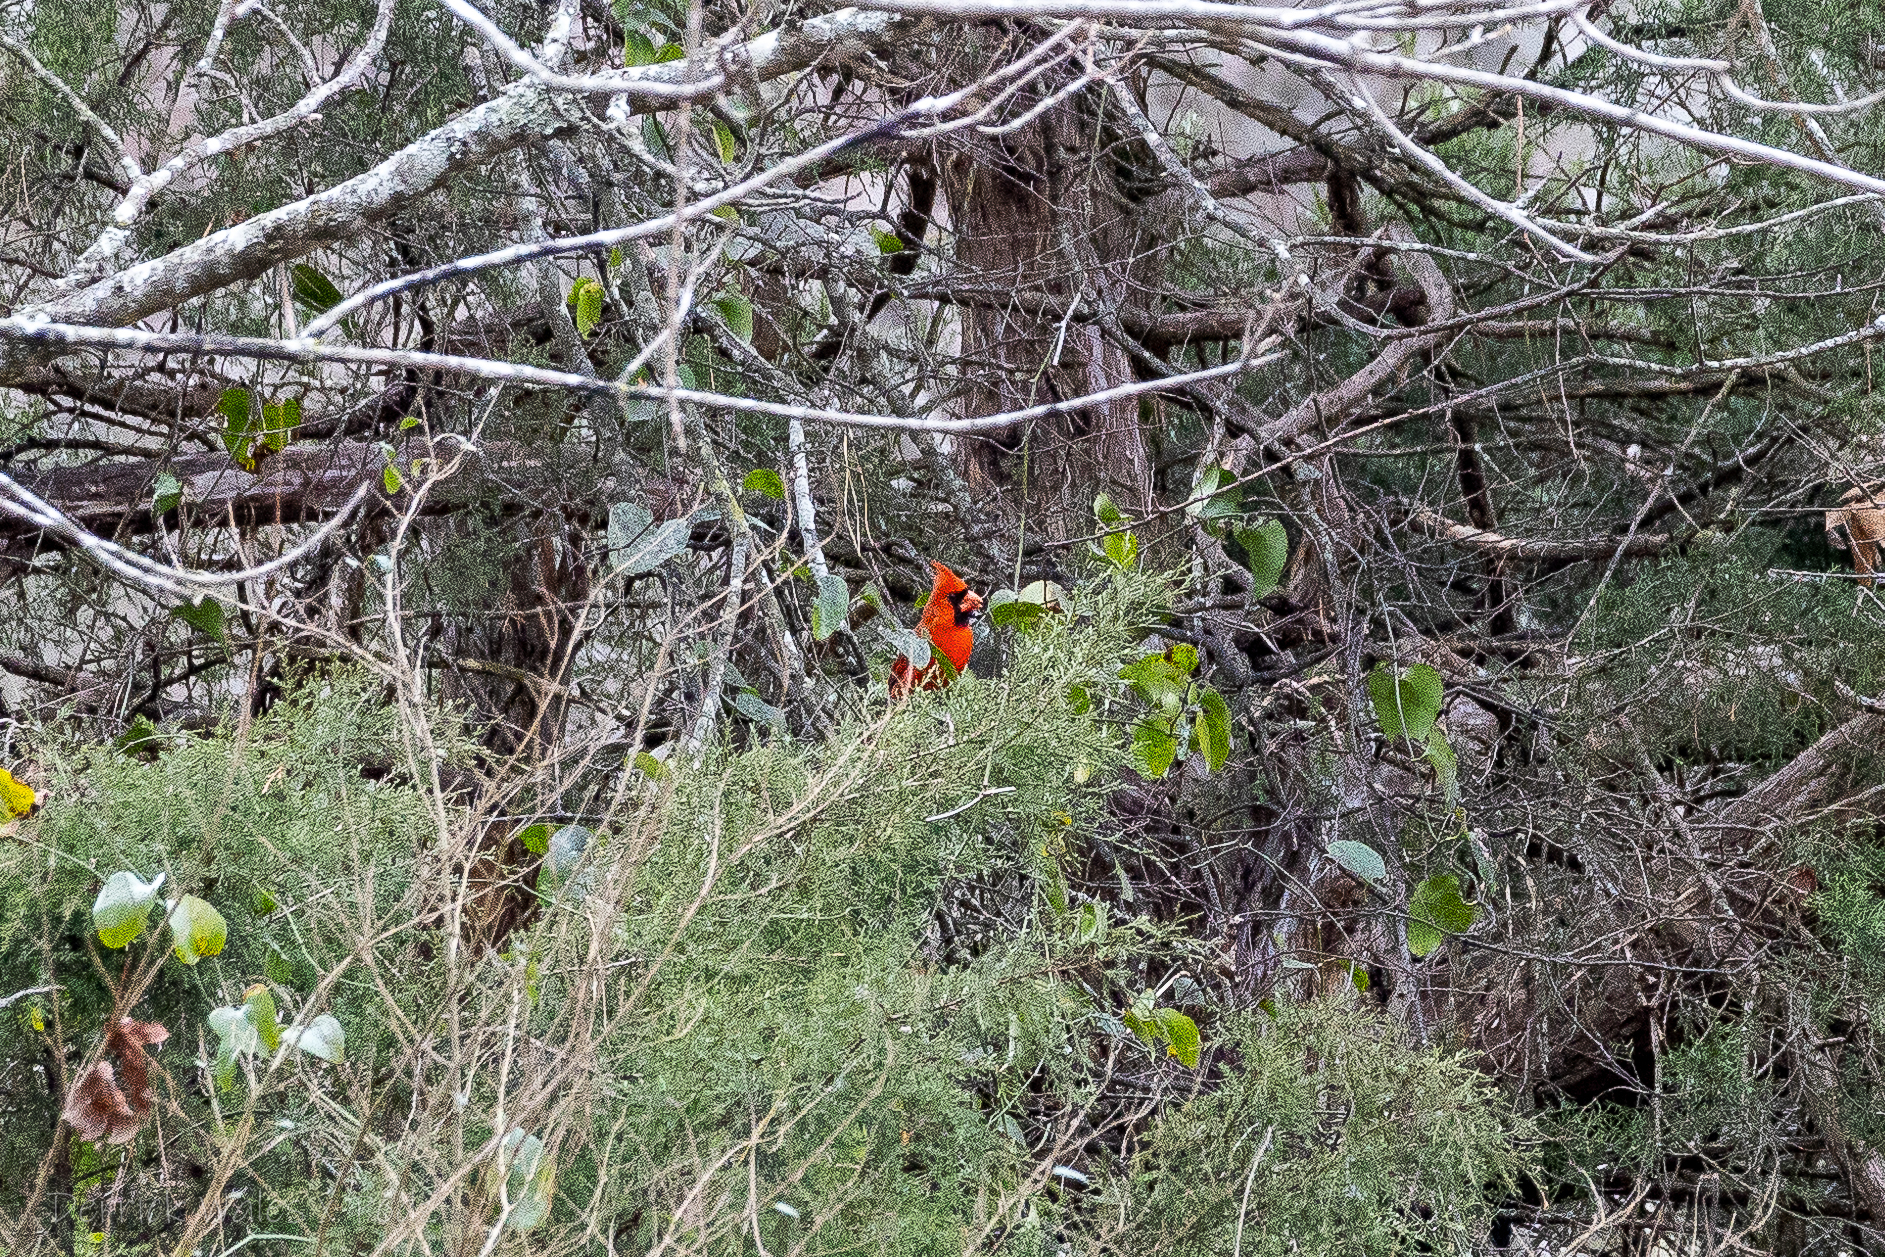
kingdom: Animalia
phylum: Chordata
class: Aves
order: Passeriformes
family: Cardinalidae
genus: Cardinalis
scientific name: Cardinalis cardinalis
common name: Northern cardinal
